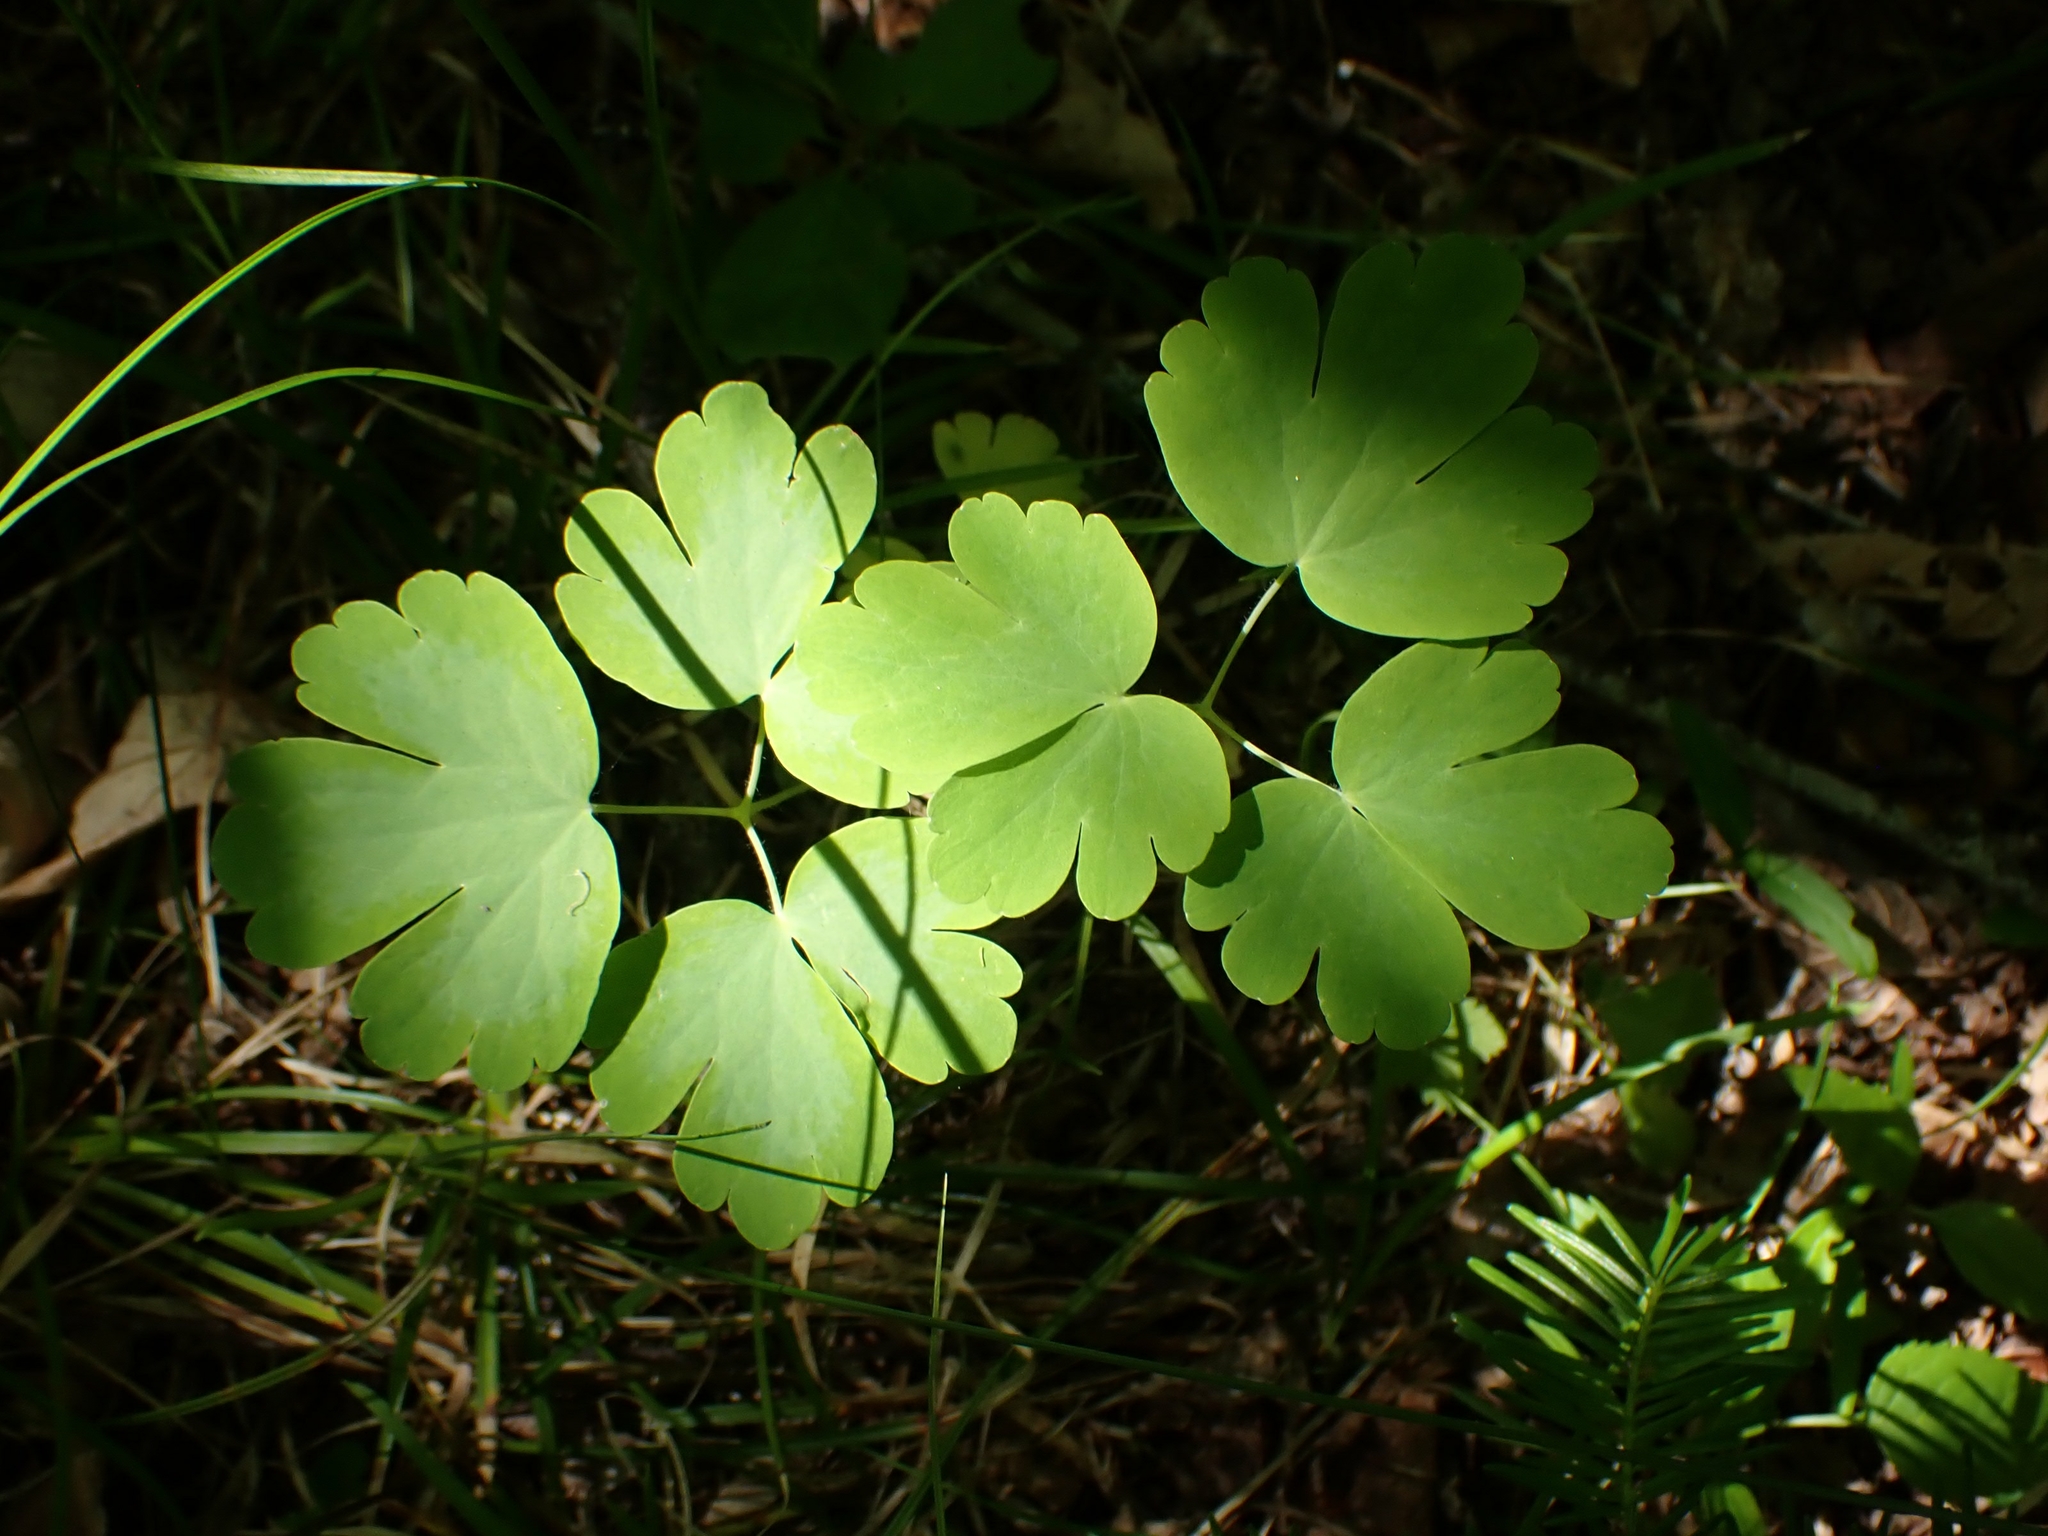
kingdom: Plantae
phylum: Tracheophyta
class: Magnoliopsida
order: Ranunculales
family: Ranunculaceae
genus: Aquilegia
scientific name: Aquilegia canadensis
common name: American columbine
